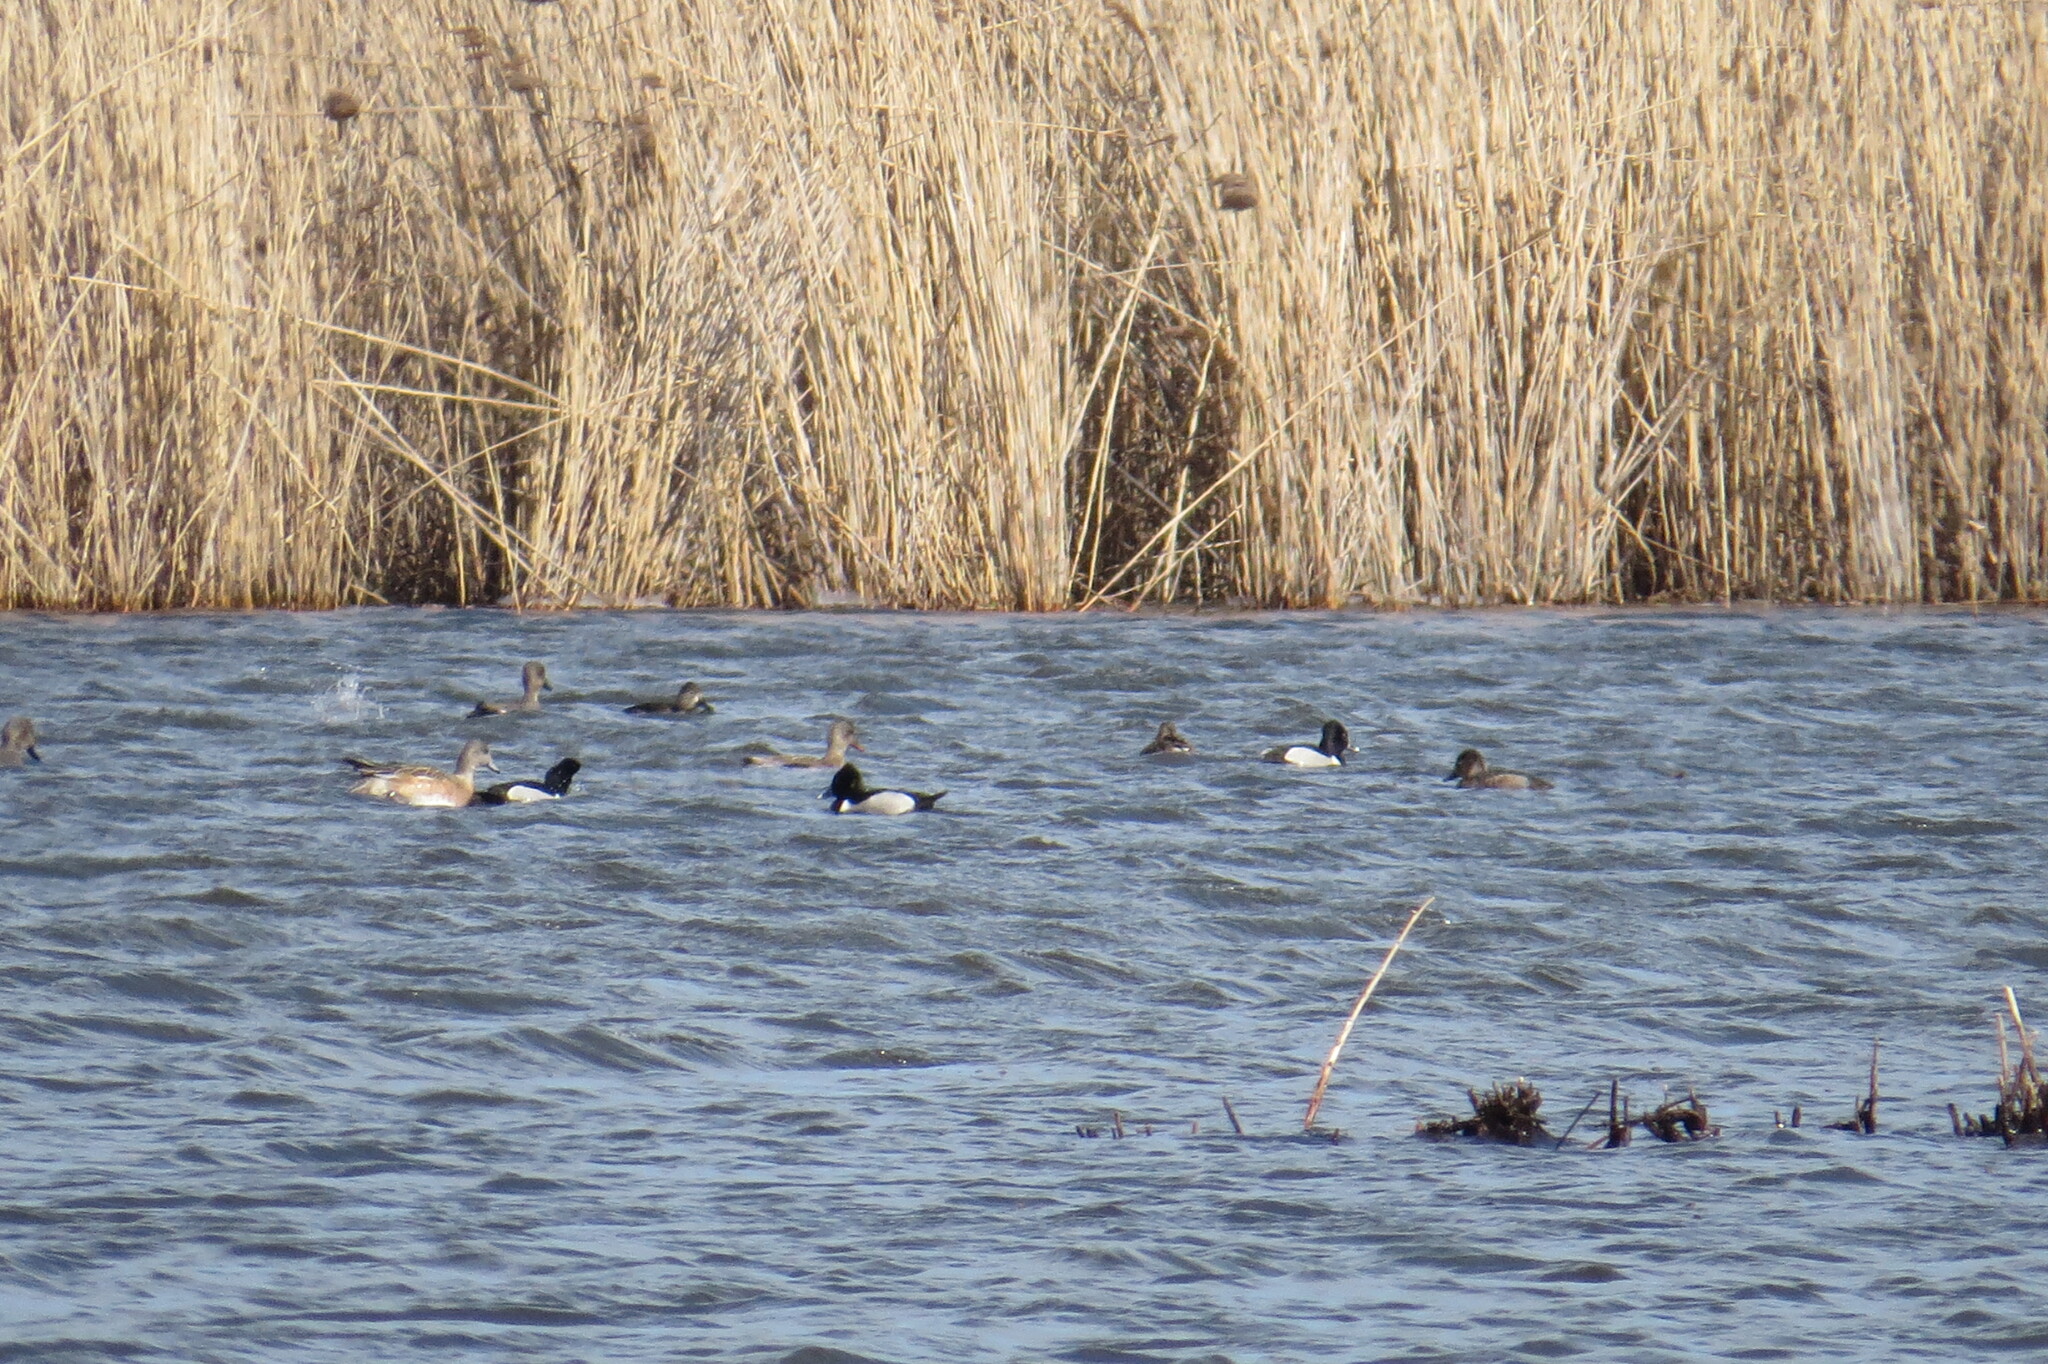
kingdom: Animalia
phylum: Chordata
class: Aves
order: Anseriformes
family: Anatidae
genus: Aythya
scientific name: Aythya collaris
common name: Ring-necked duck
